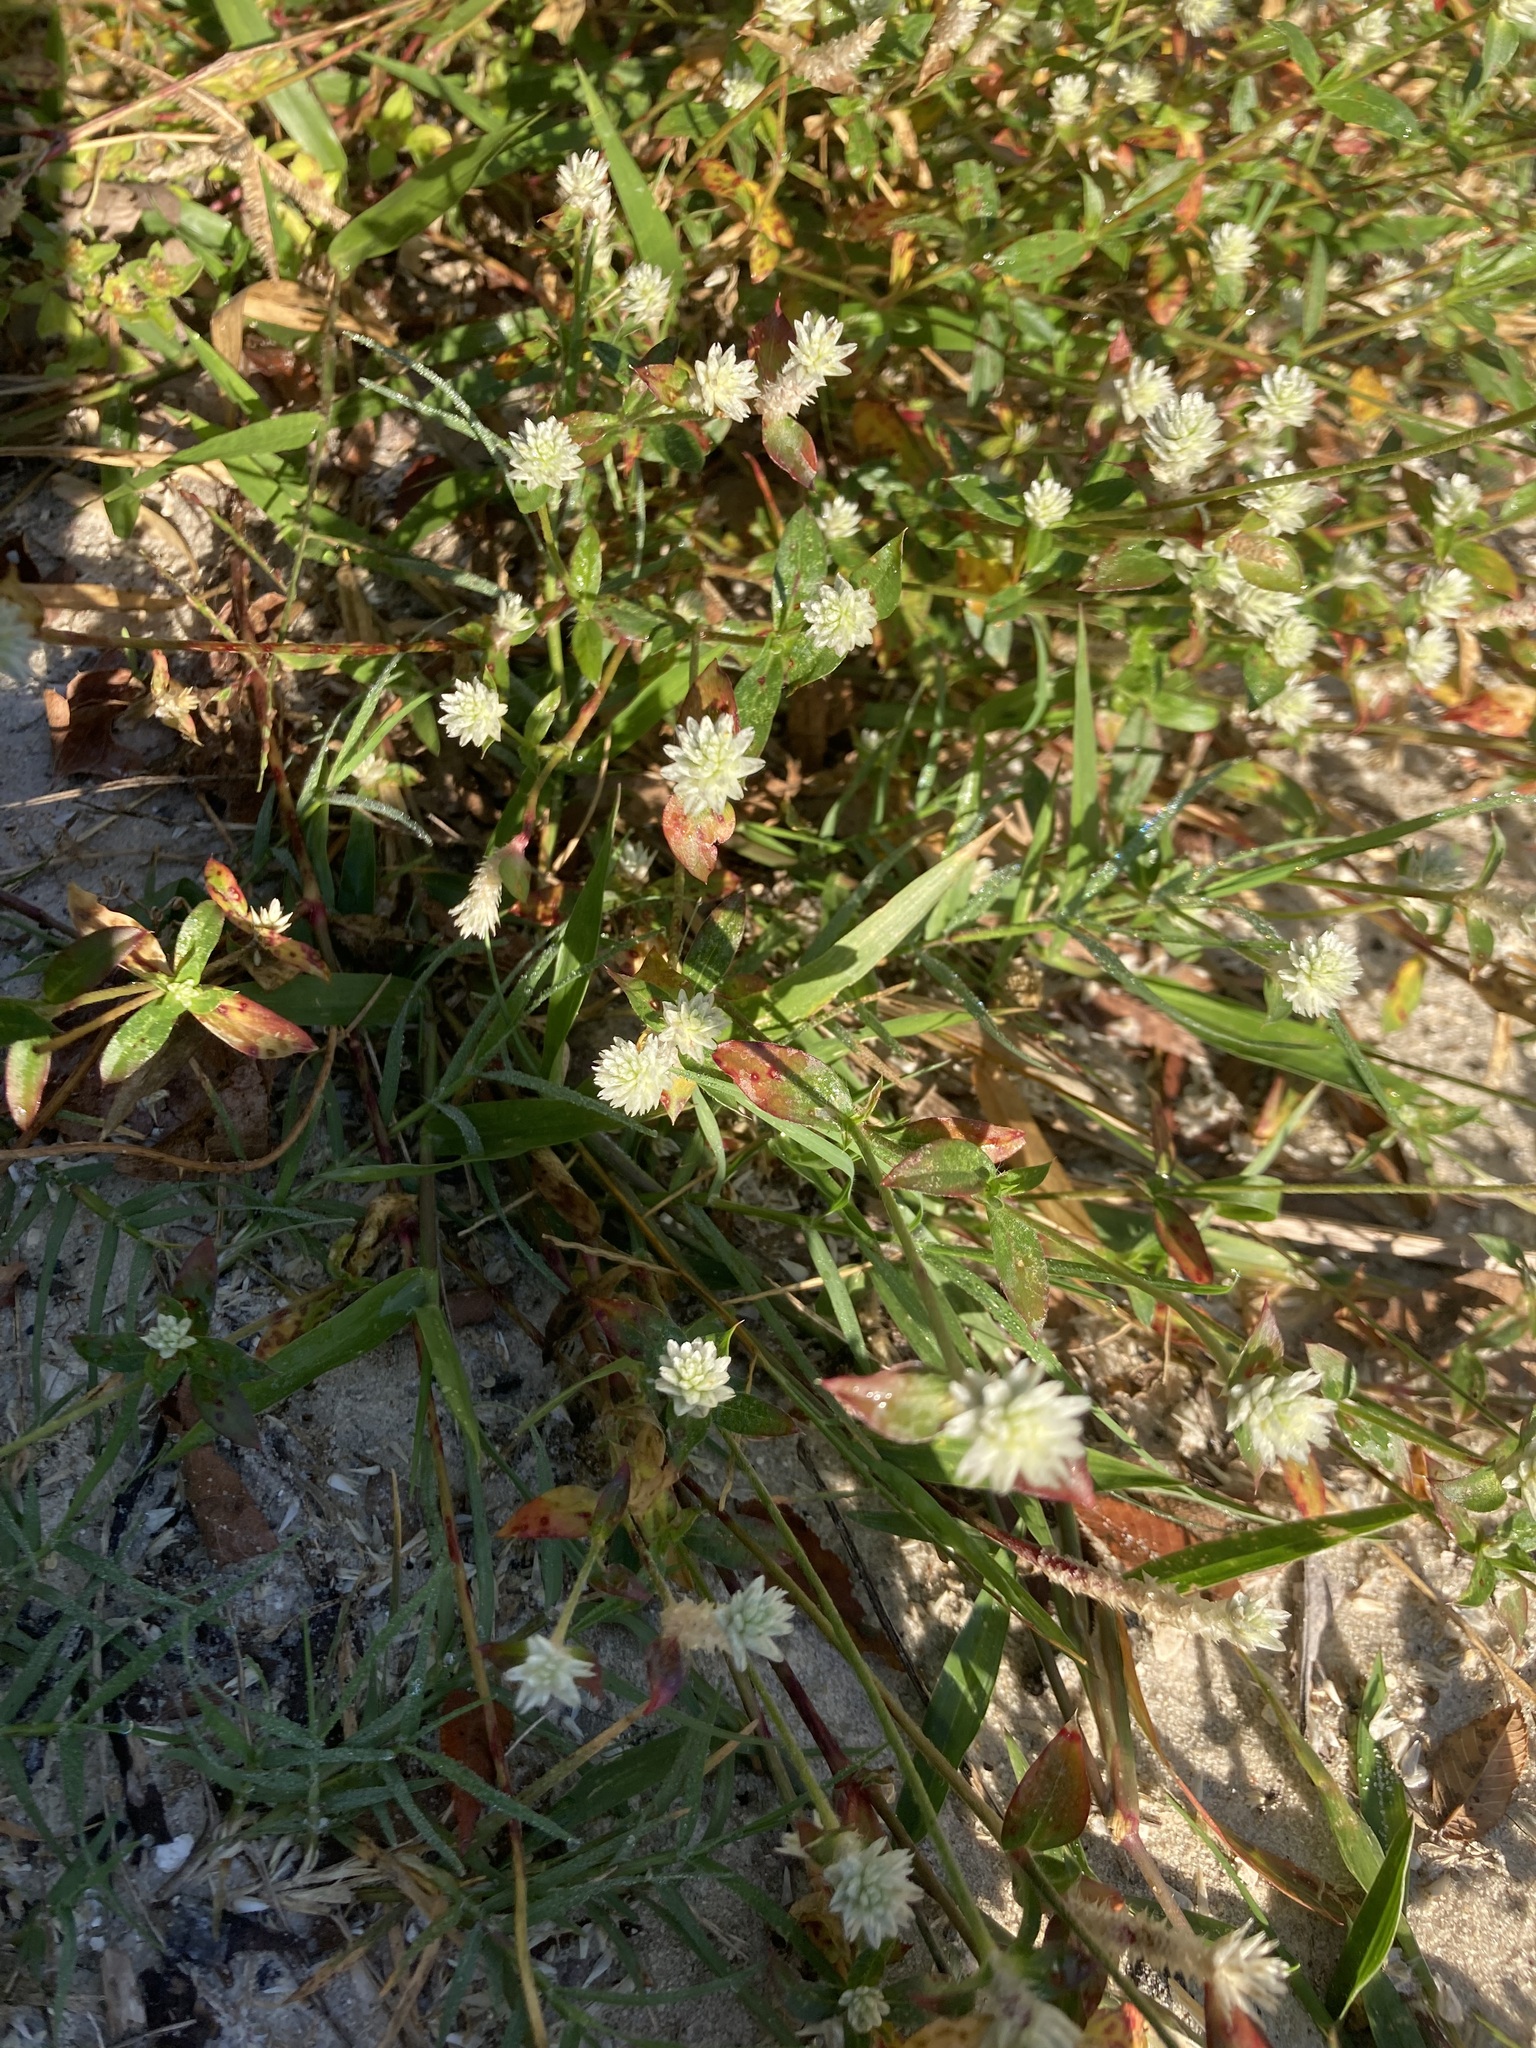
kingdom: Plantae
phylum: Tracheophyta
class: Magnoliopsida
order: Caryophyllales
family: Amaranthaceae
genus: Gomphrena
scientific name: Gomphrena serrata
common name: Arrasa con todo
